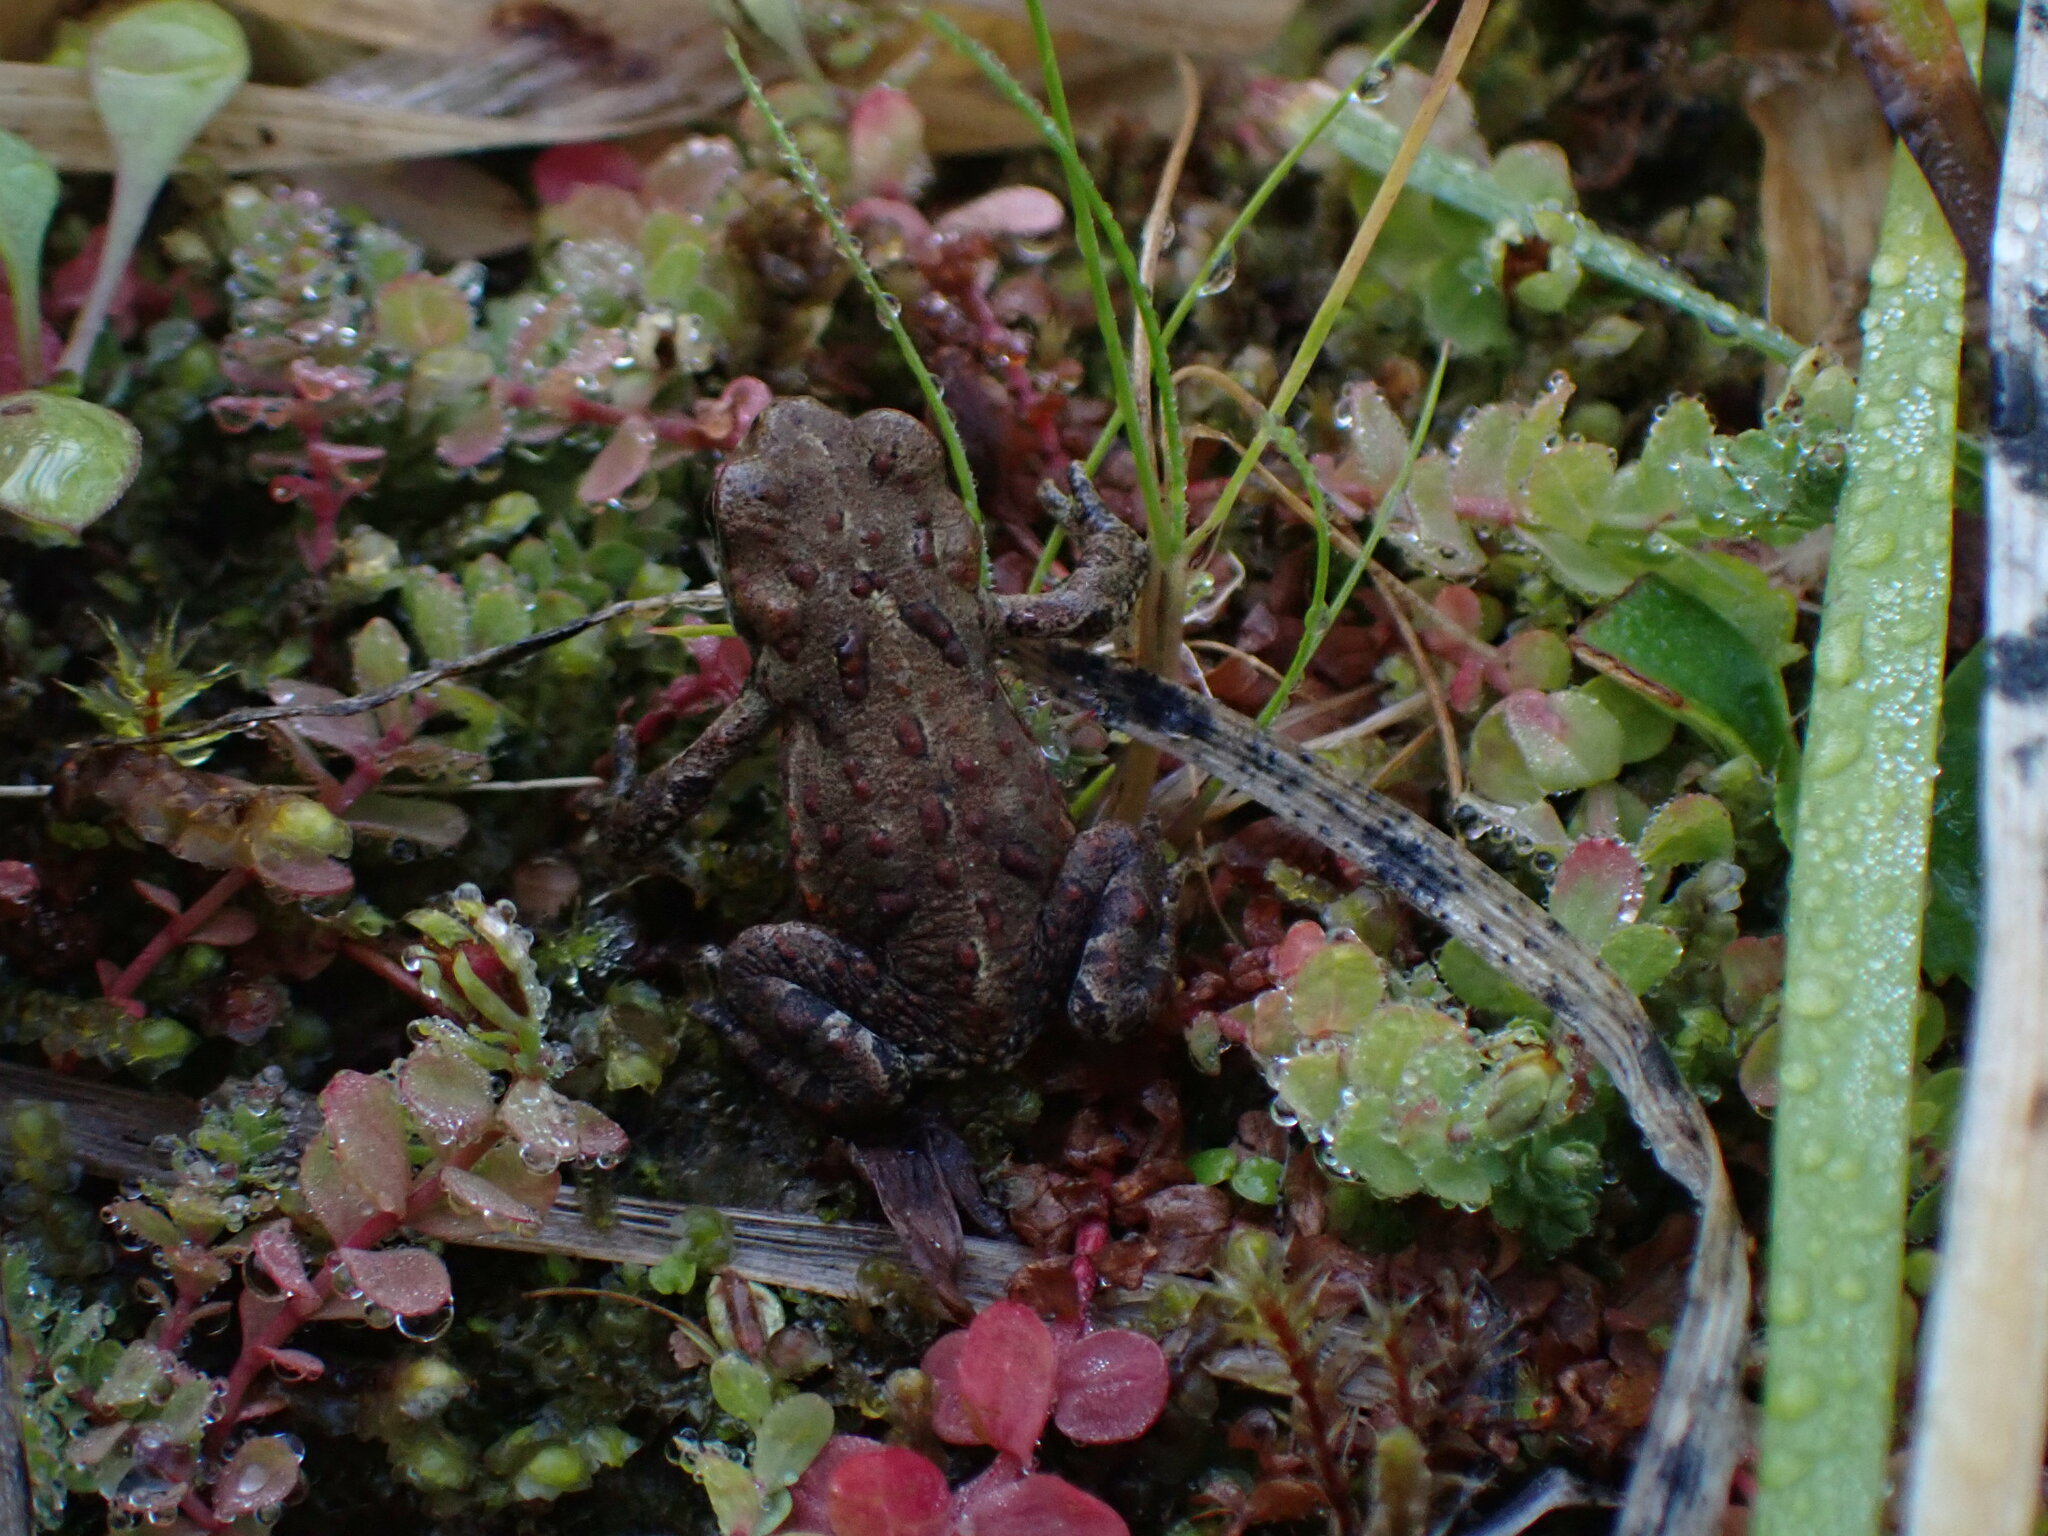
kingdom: Animalia
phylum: Chordata
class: Amphibia
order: Anura
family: Bufonidae
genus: Anaxyrus
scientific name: Anaxyrus boreas
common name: Western toad
